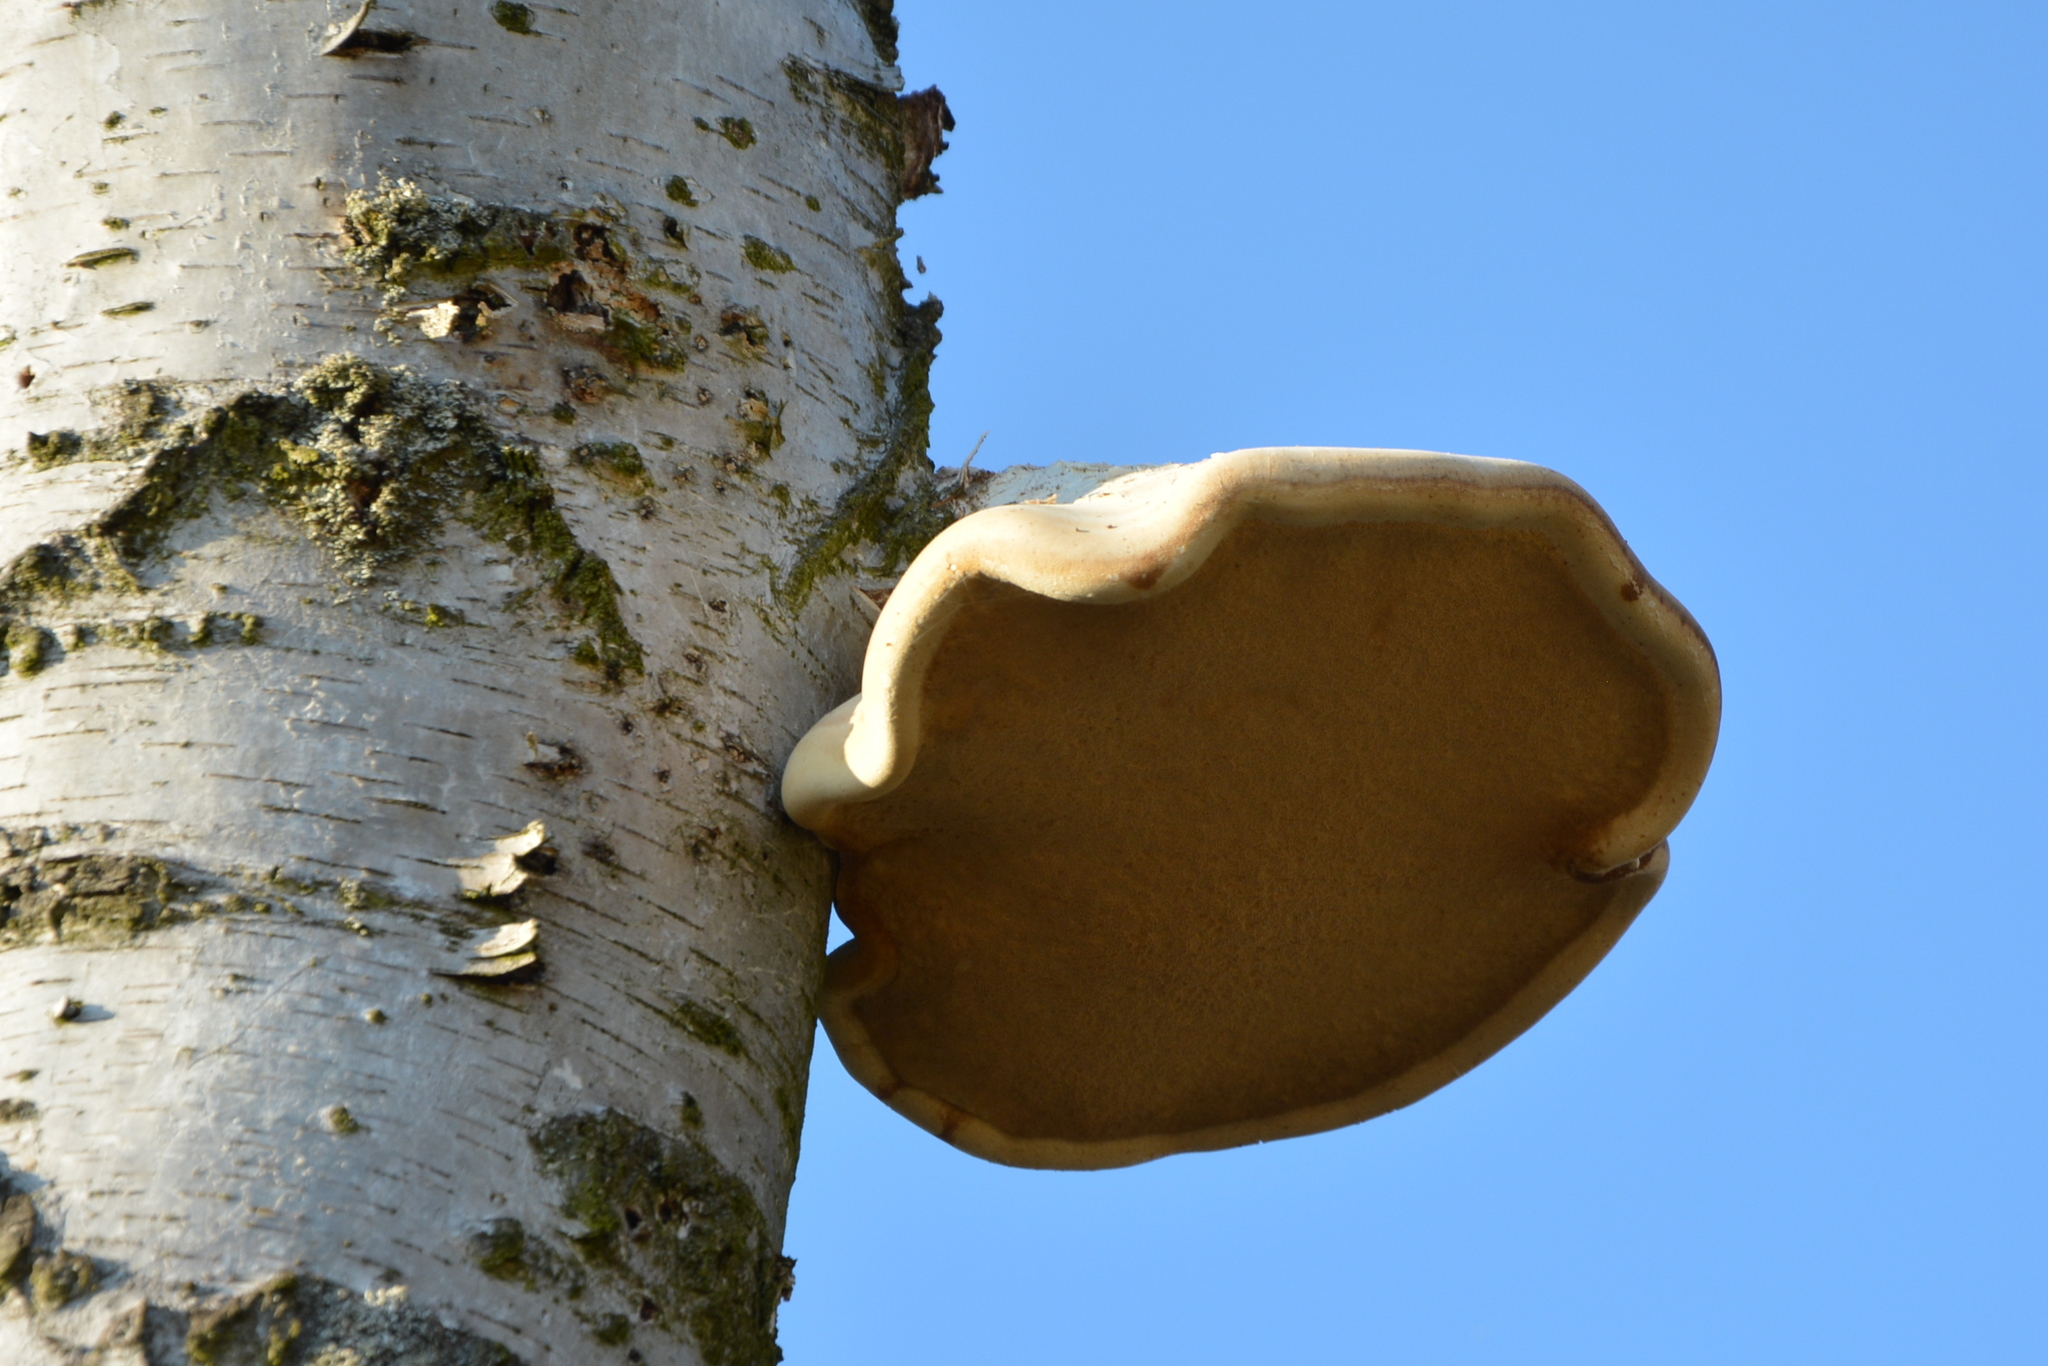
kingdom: Fungi
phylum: Basidiomycota
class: Agaricomycetes
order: Polyporales
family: Fomitopsidaceae
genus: Fomitopsis
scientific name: Fomitopsis betulina
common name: Birch polypore
